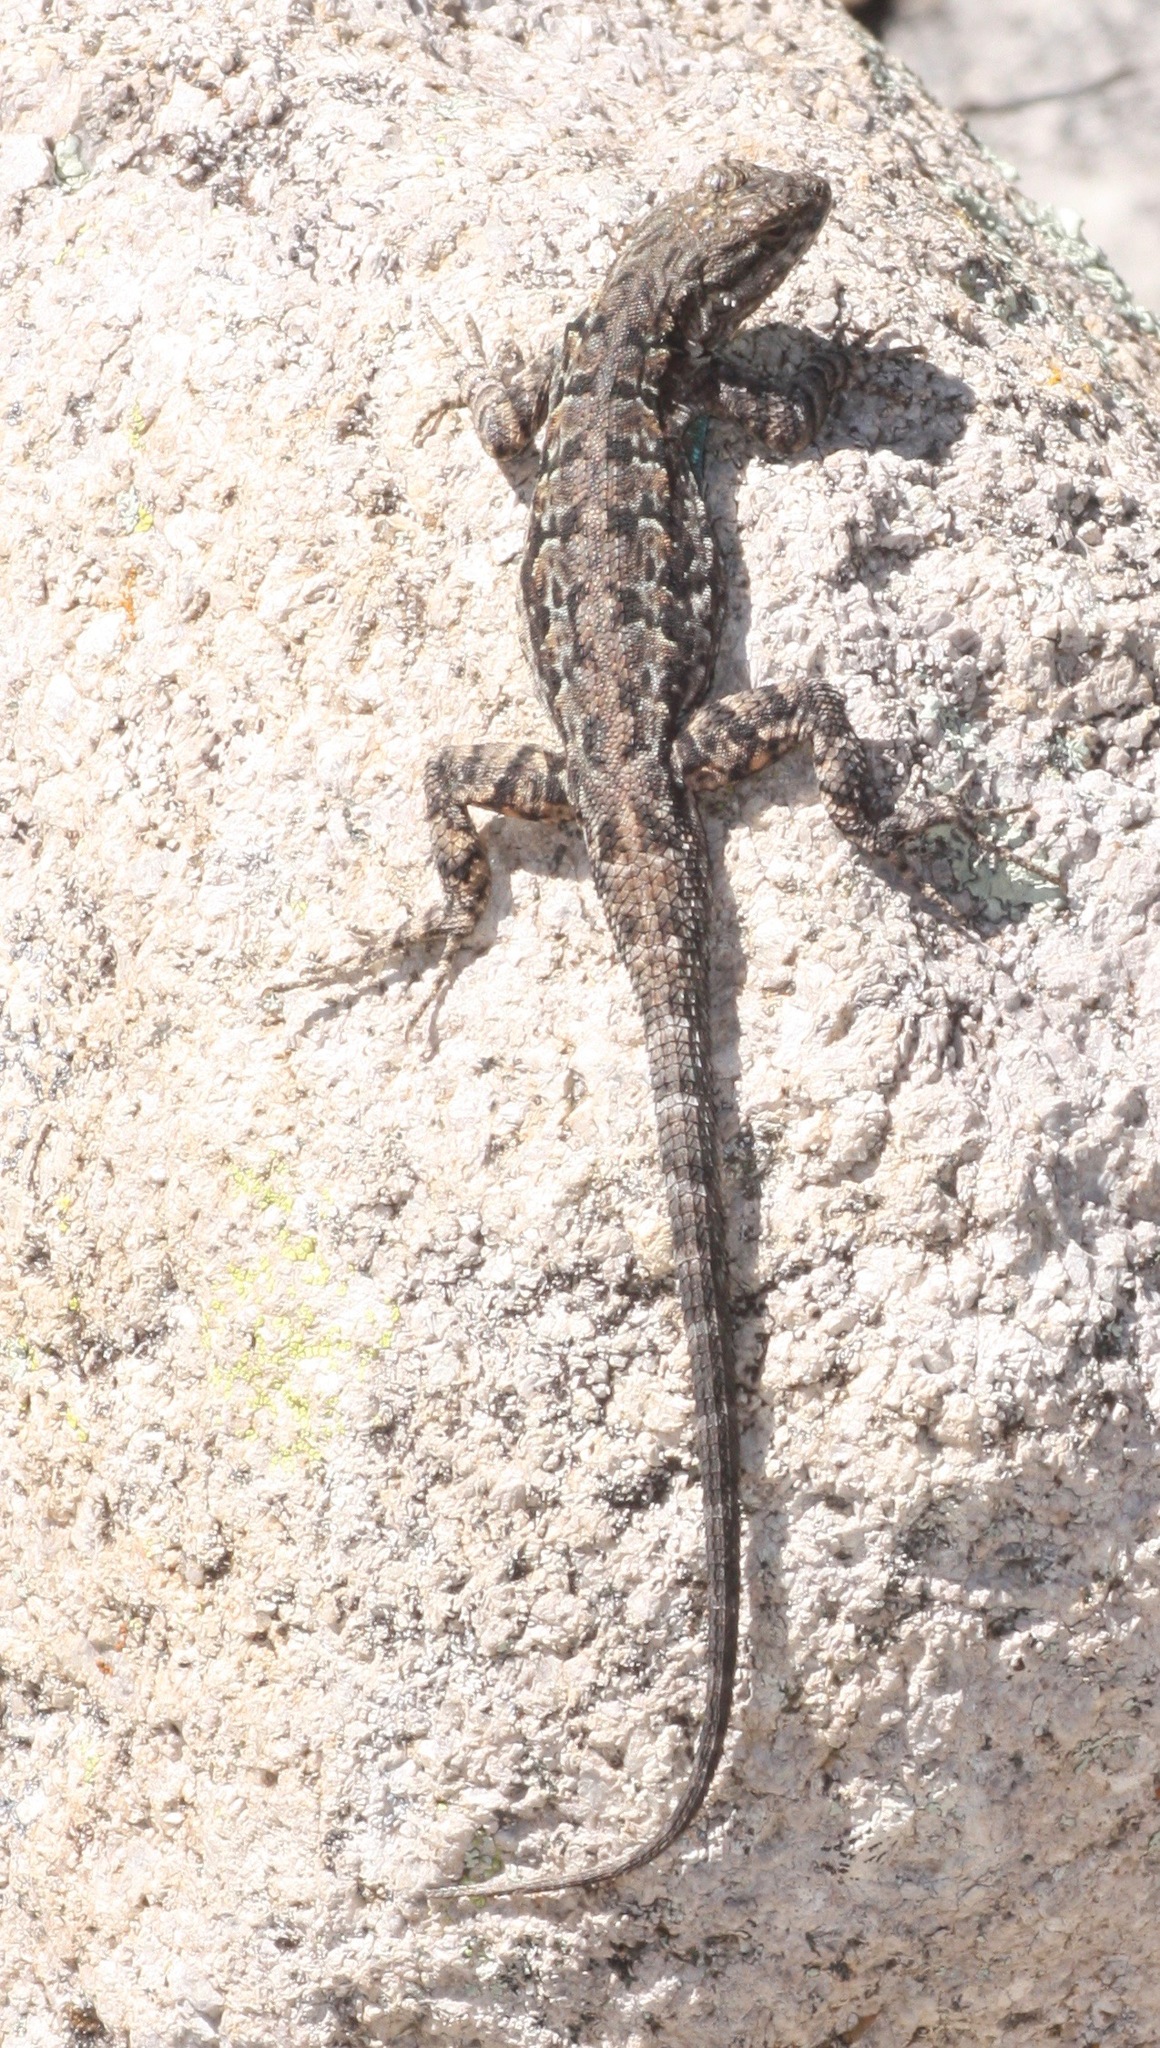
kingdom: Animalia
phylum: Chordata
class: Squamata
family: Phrynosomatidae
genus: Urosaurus
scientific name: Urosaurus ornatus
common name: Ornate tree lizard
